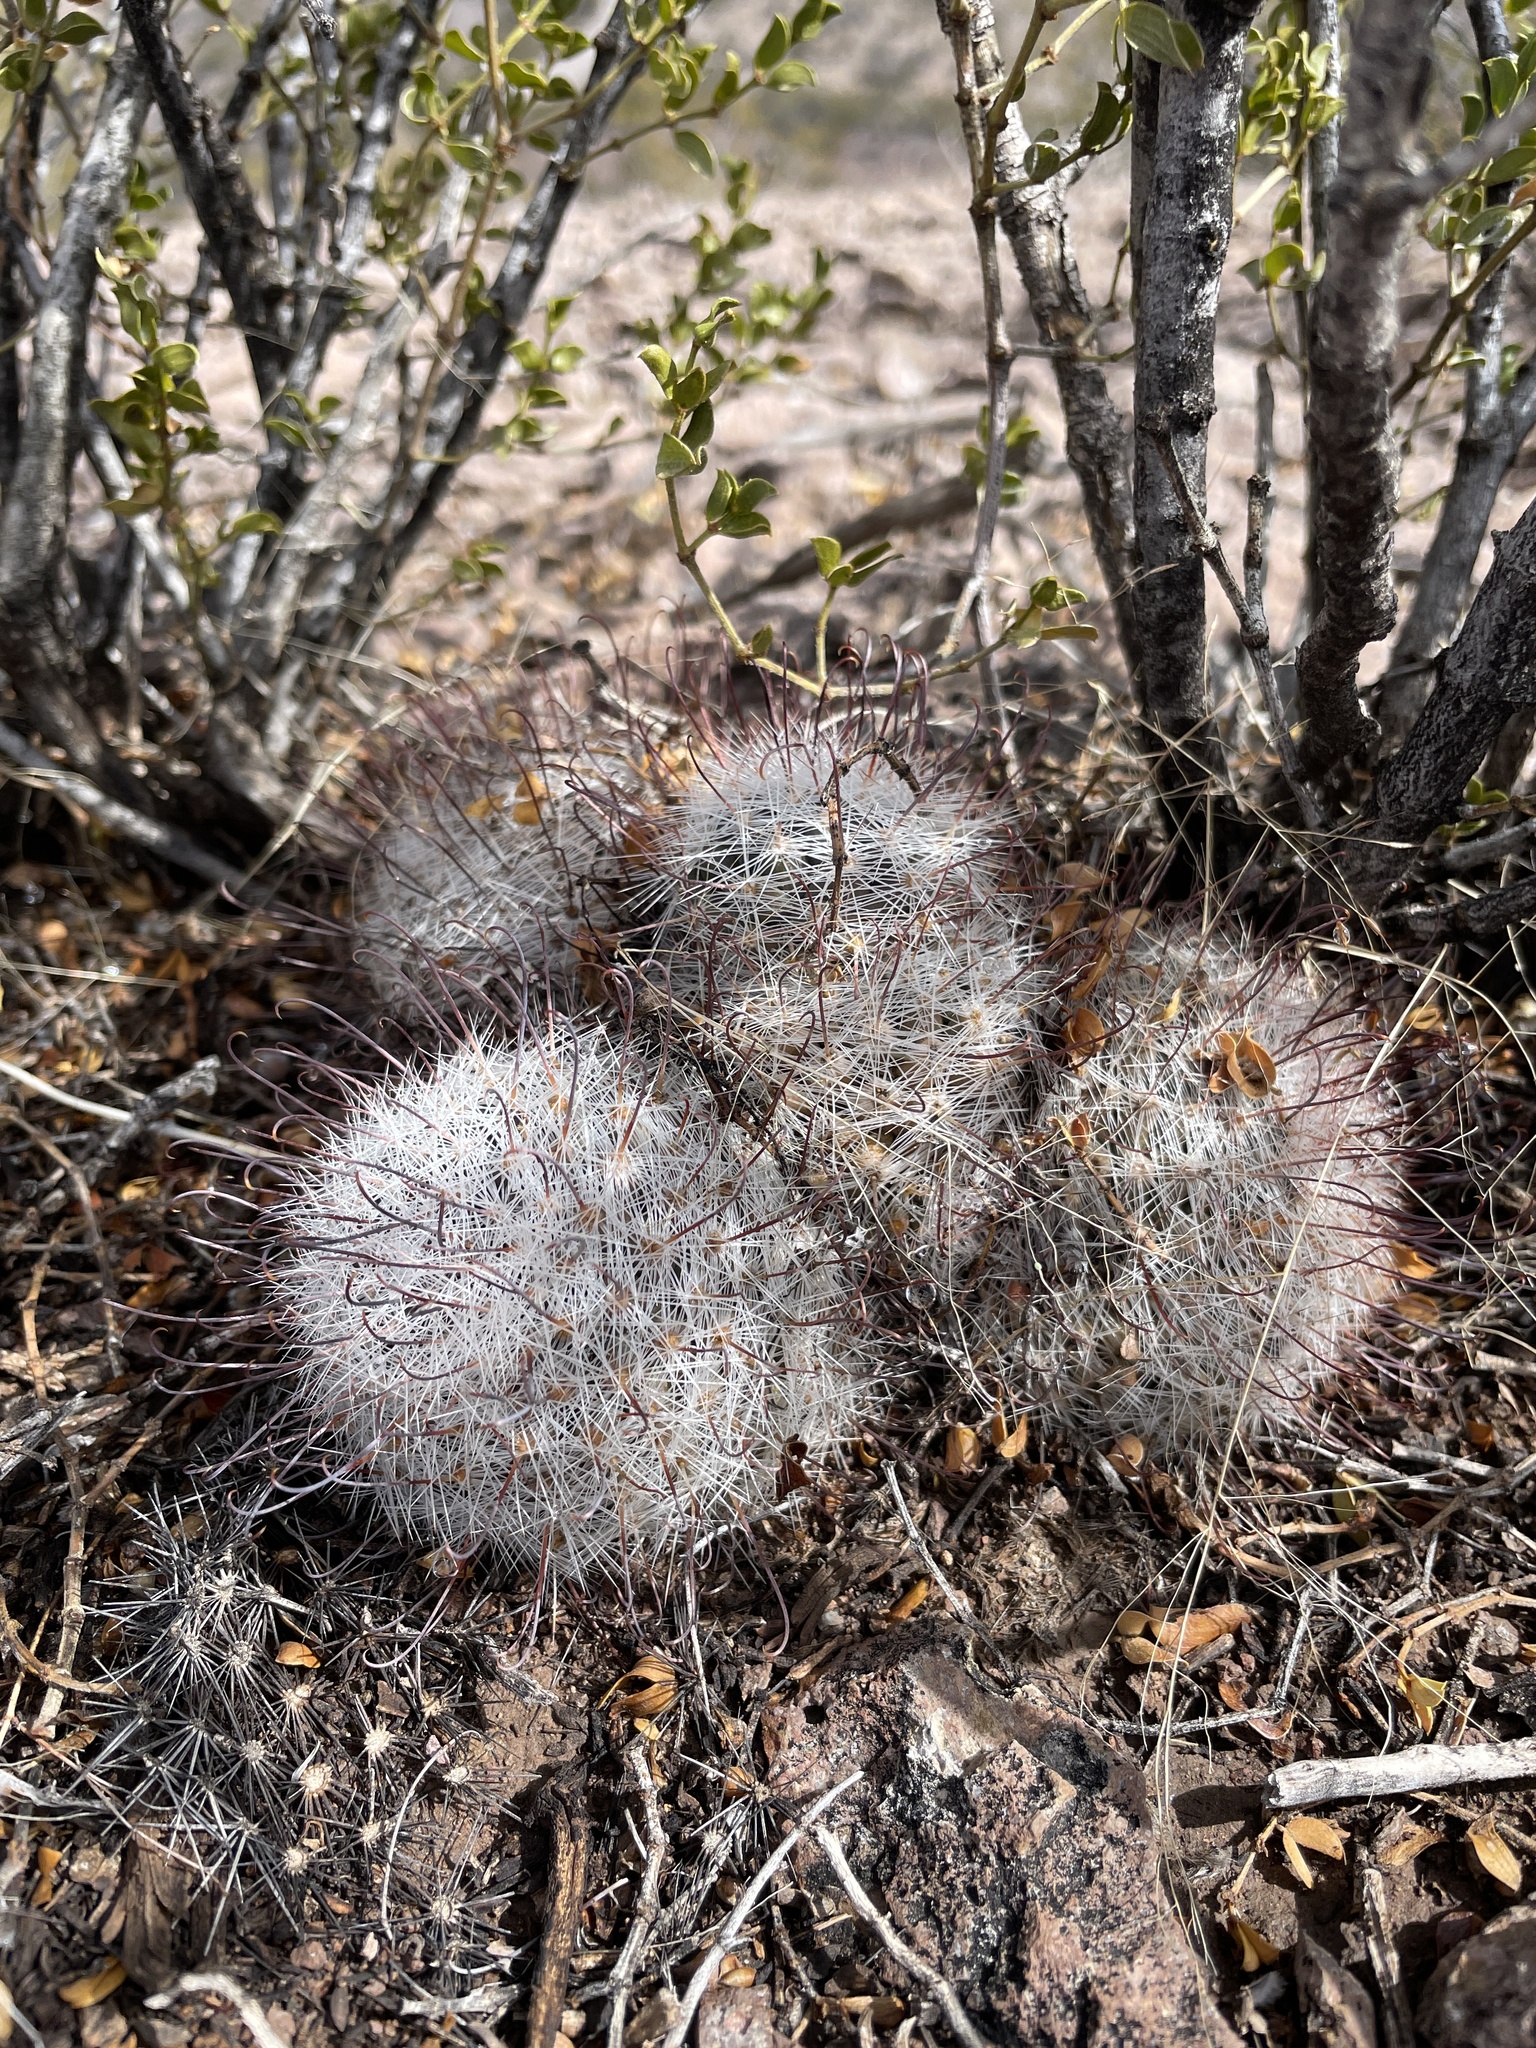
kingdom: Plantae
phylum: Tracheophyta
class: Magnoliopsida
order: Caryophyllales
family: Cactaceae
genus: Cochemiea
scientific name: Cochemiea grahamii
